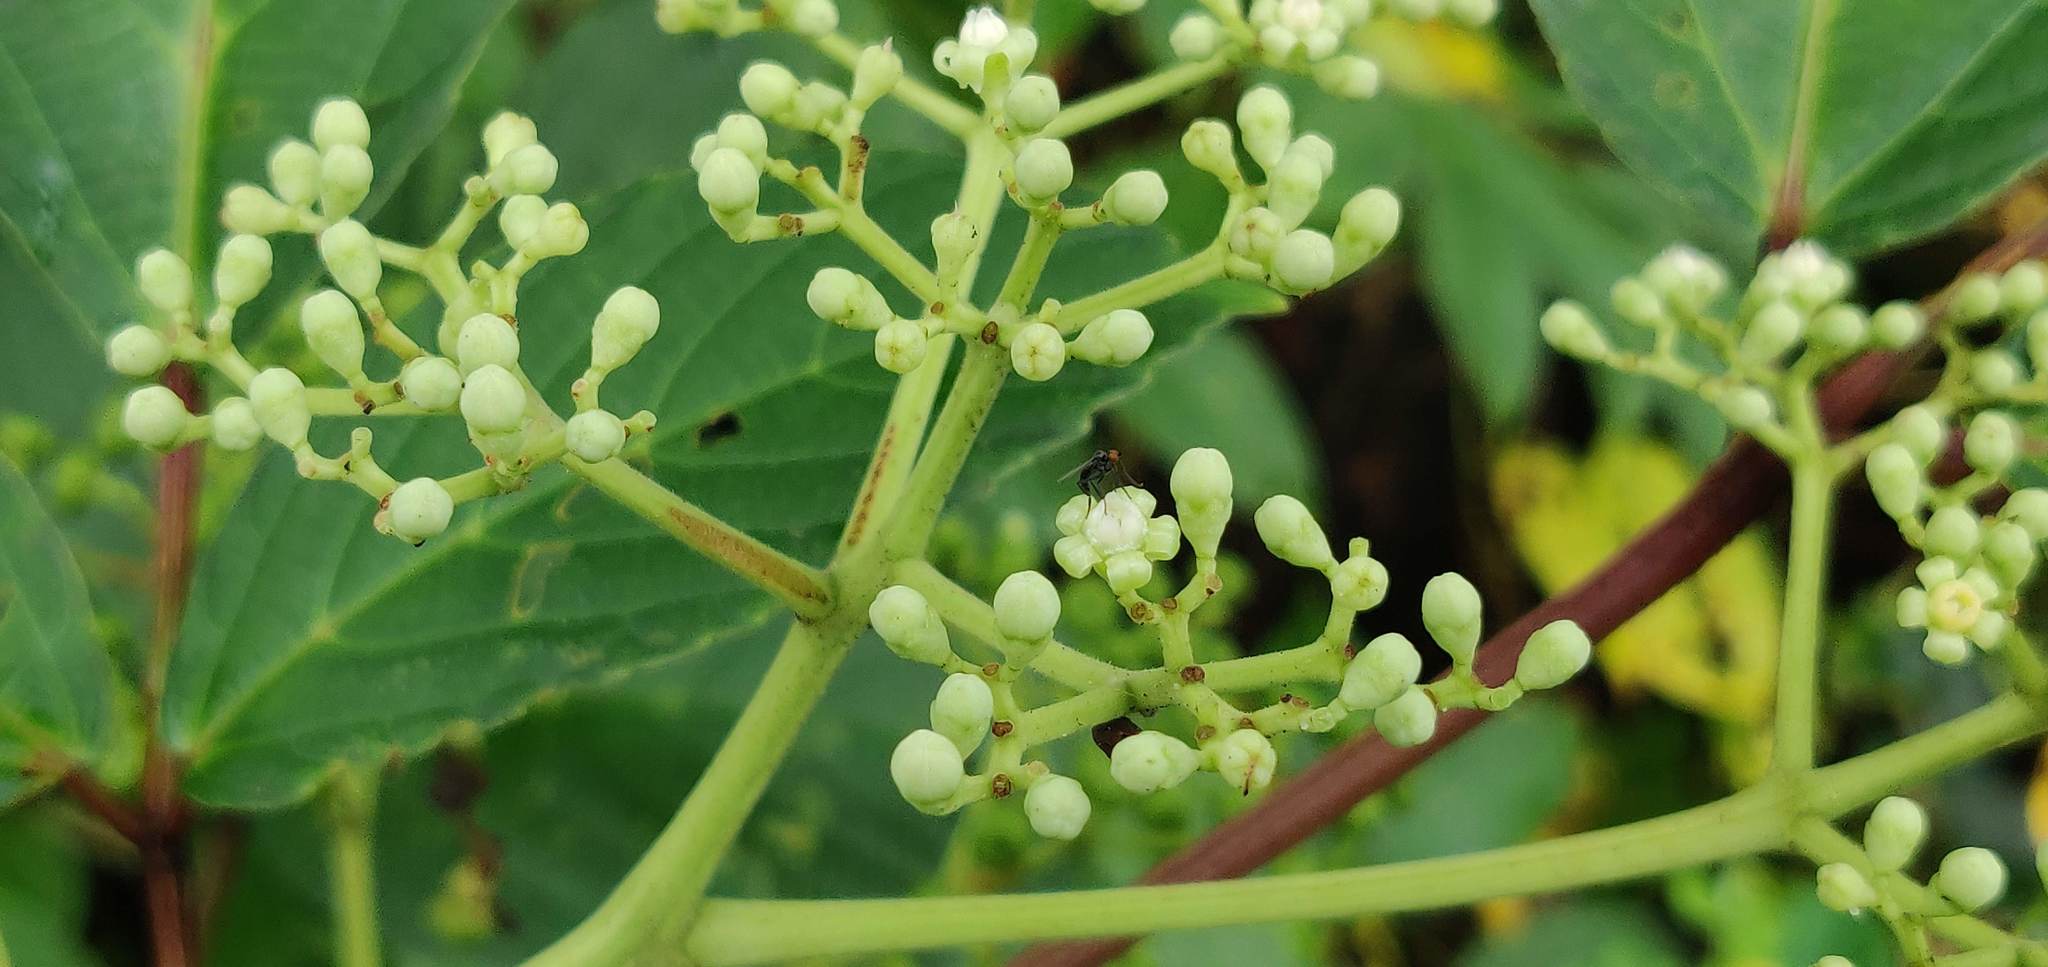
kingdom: Plantae
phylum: Tracheophyta
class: Magnoliopsida
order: Vitales
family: Vitaceae
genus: Leea
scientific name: Leea macrophylla
